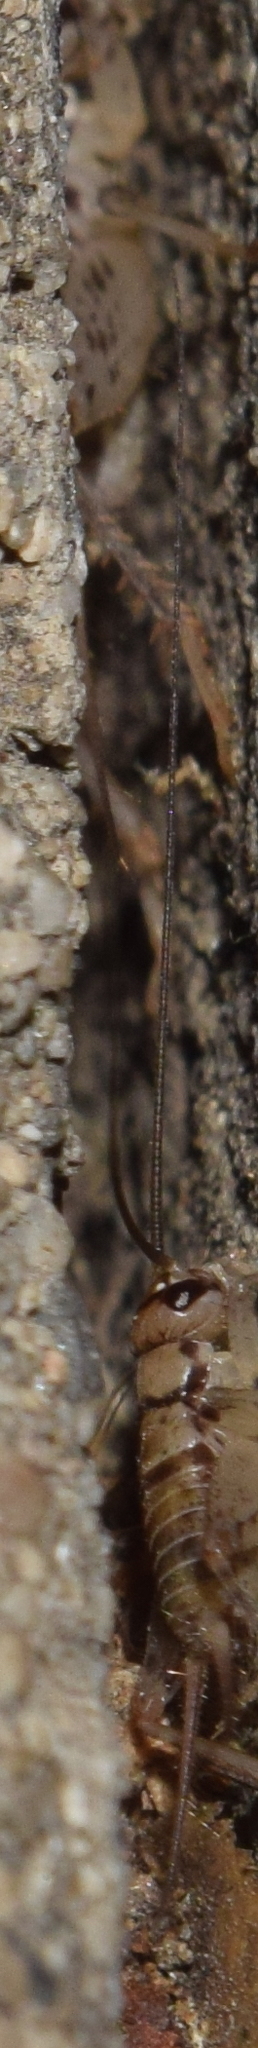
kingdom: Animalia
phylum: Arthropoda
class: Insecta
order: Orthoptera
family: Gryllidae
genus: Gryllodes
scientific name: Gryllodes sigillatus
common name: Tropical house cricket
